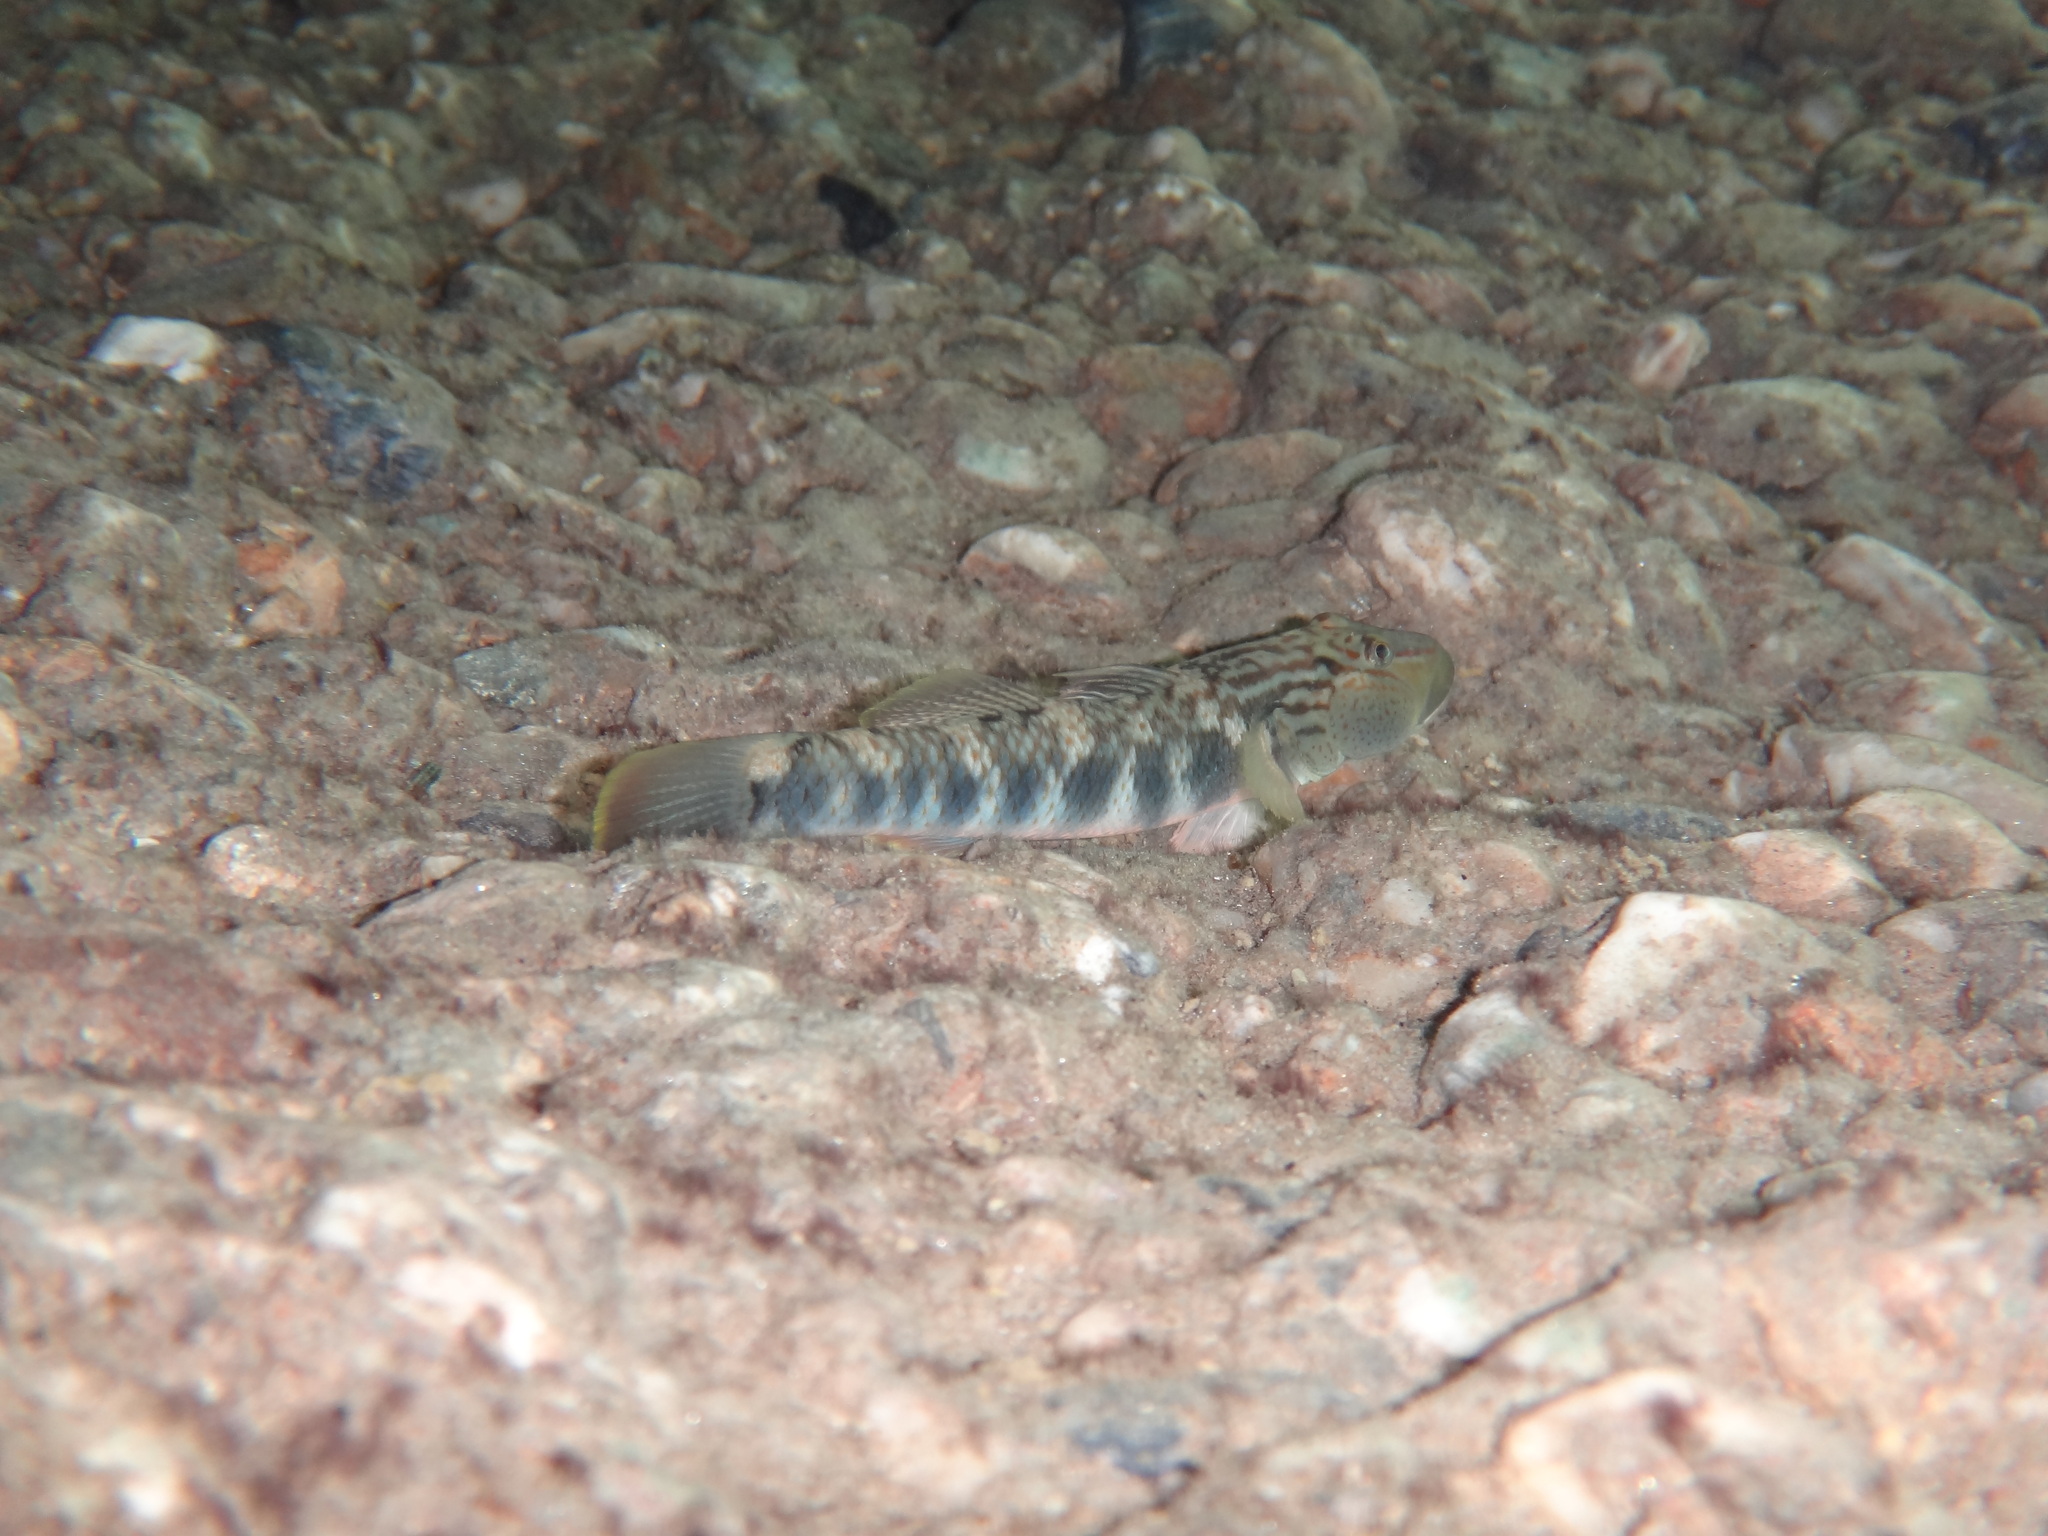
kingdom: Animalia
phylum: Chordata
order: Perciformes
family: Gobiidae
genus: Rhinogobius
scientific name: Rhinogobius gigas
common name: Amur goby
